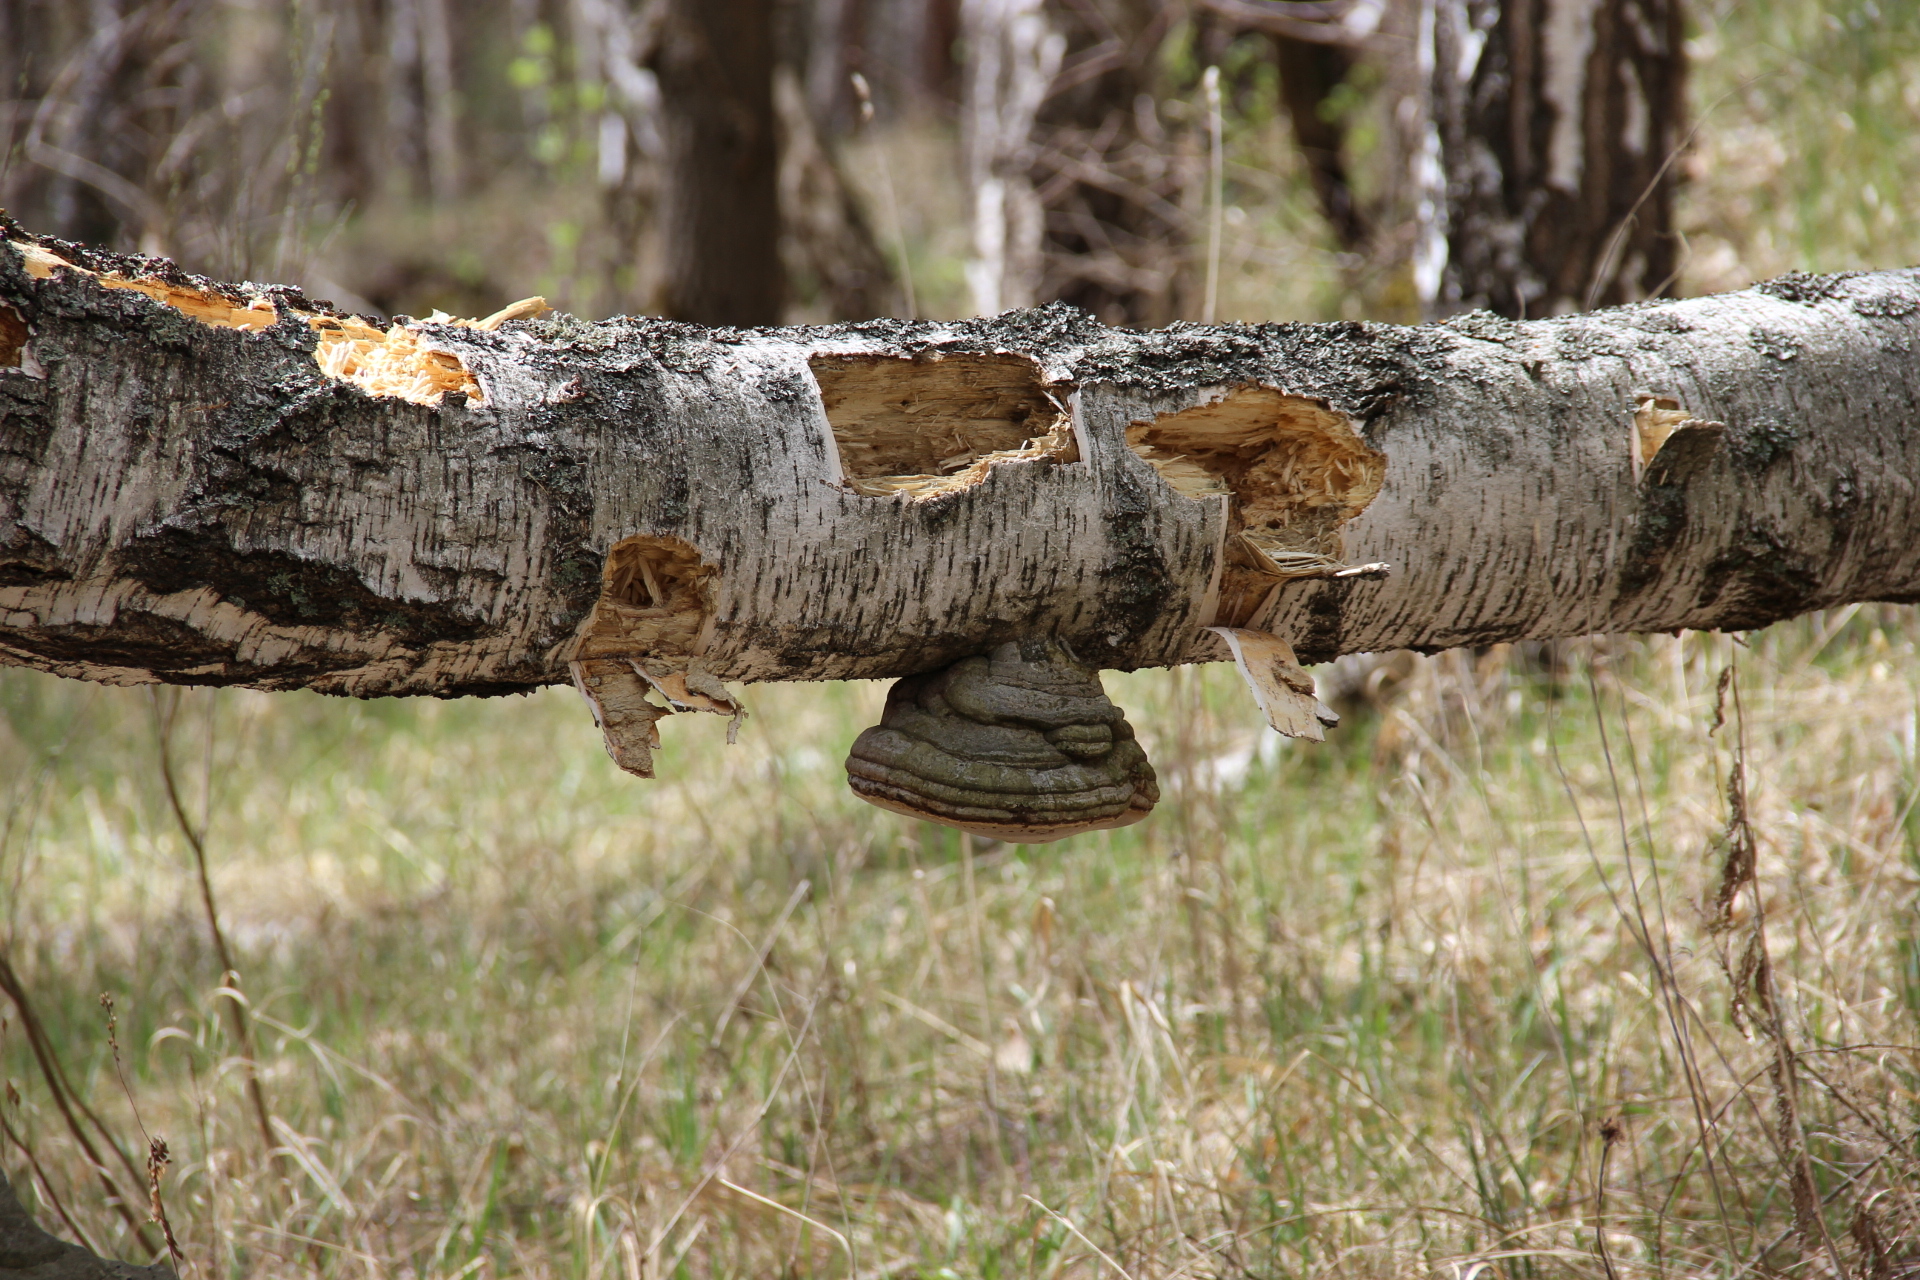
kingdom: Fungi
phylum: Basidiomycota
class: Agaricomycetes
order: Polyporales
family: Polyporaceae
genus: Fomes
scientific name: Fomes fomentarius
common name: Hoof fungus
